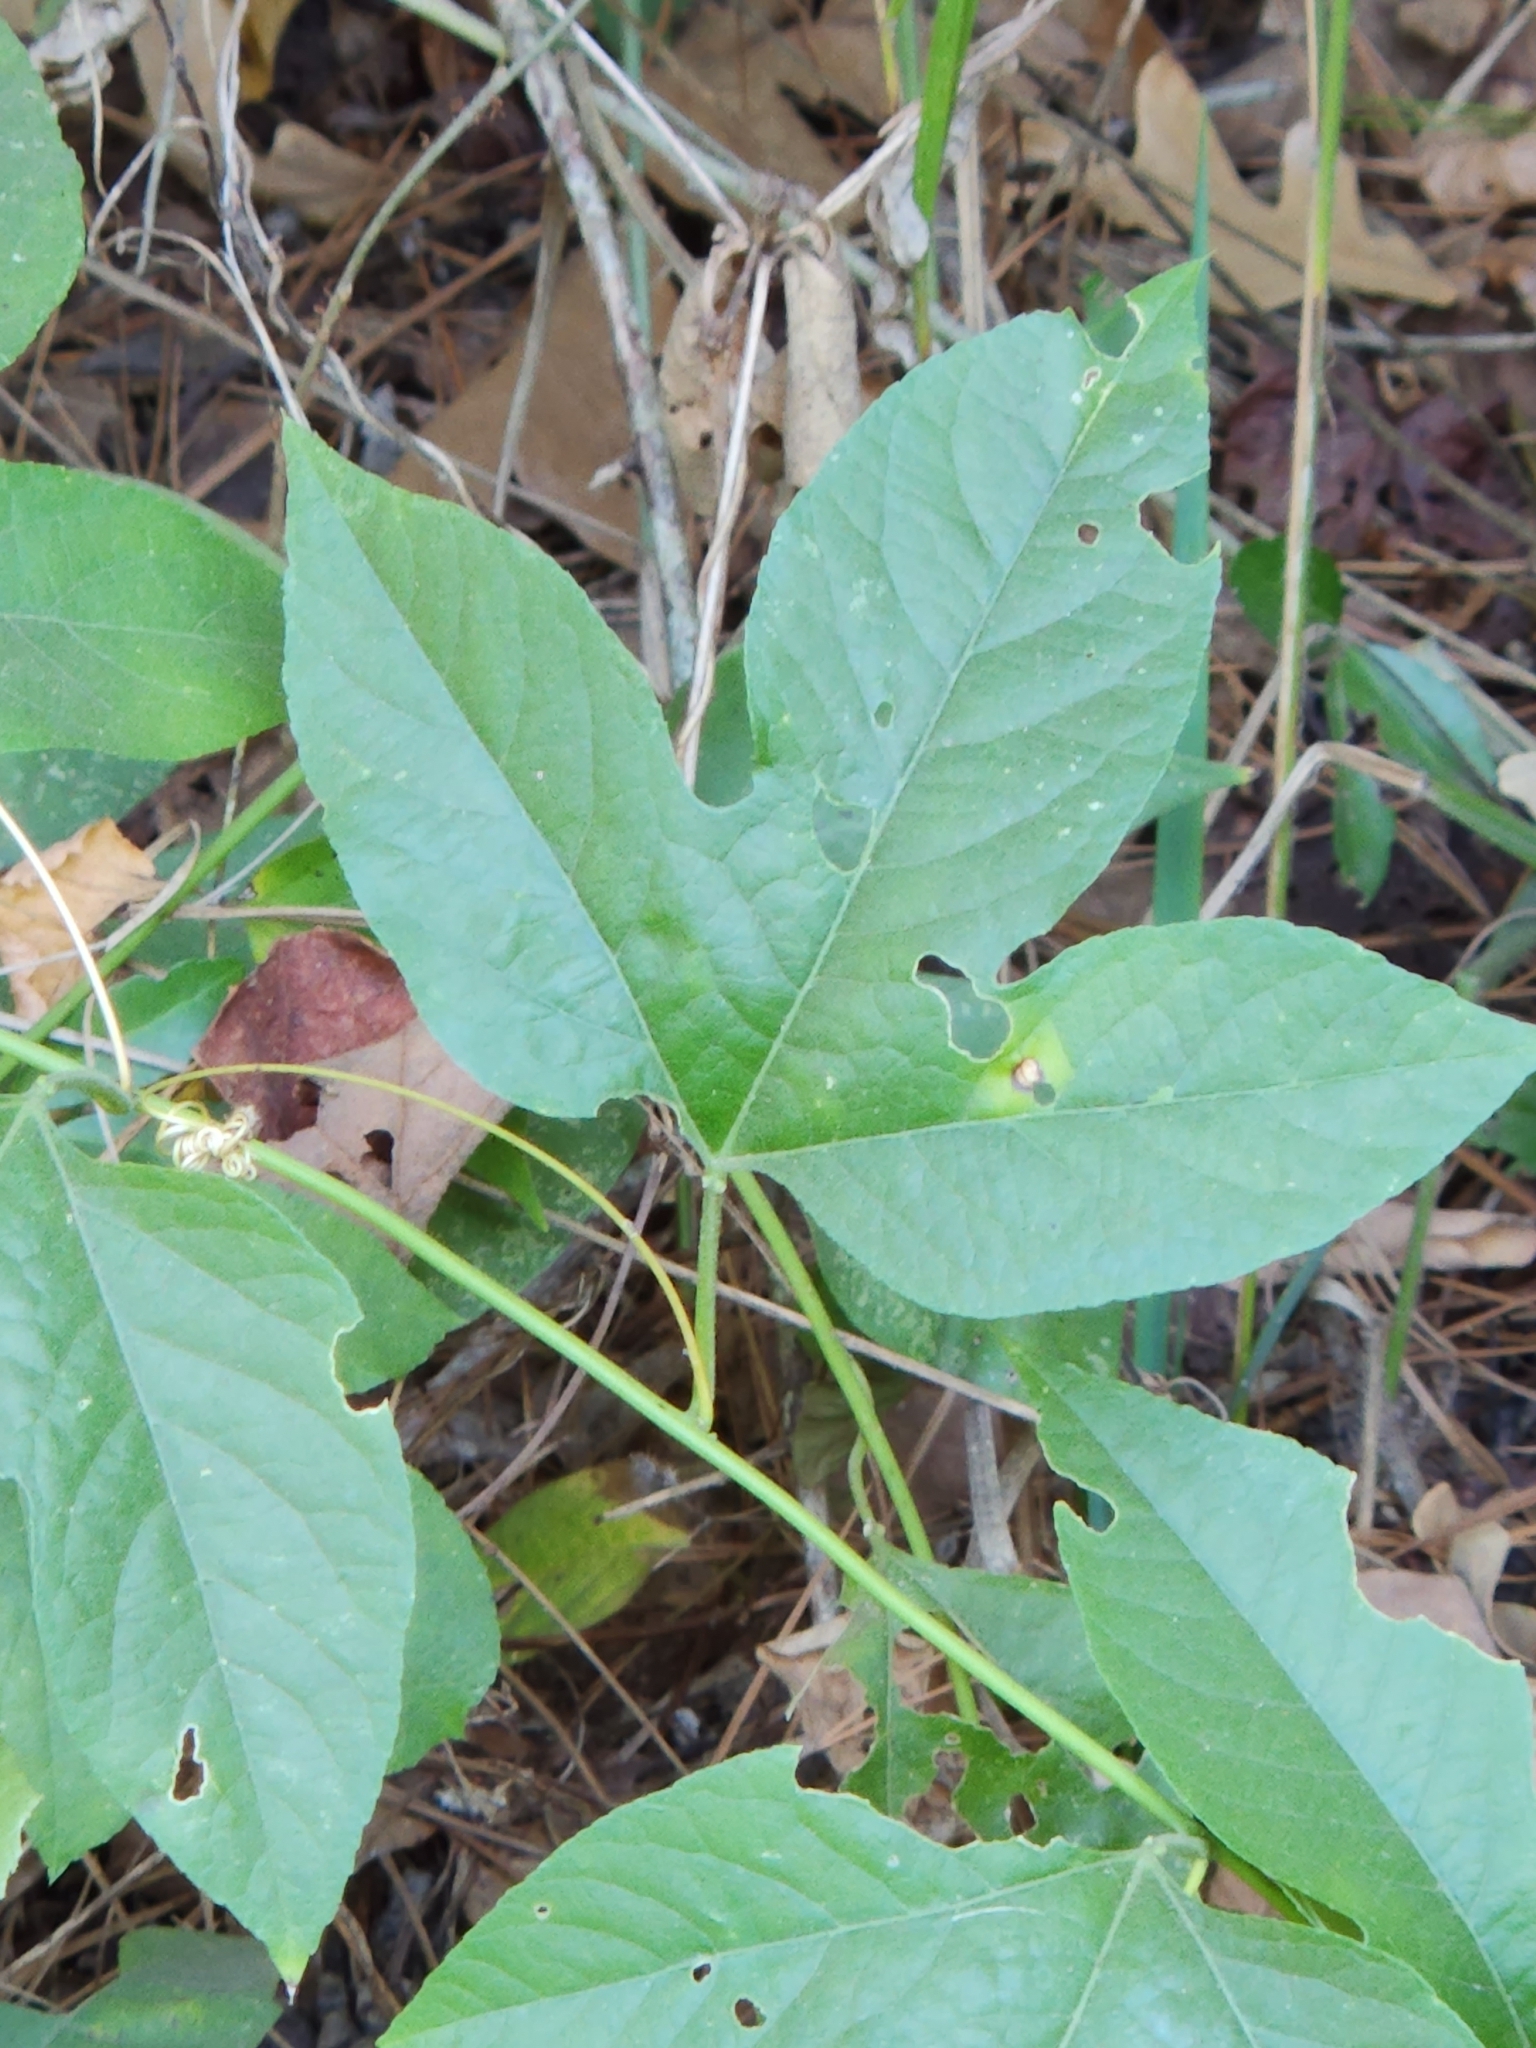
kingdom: Plantae
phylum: Tracheophyta
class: Magnoliopsida
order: Malpighiales
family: Passifloraceae
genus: Passiflora
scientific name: Passiflora incarnata
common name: Apricot-vine
